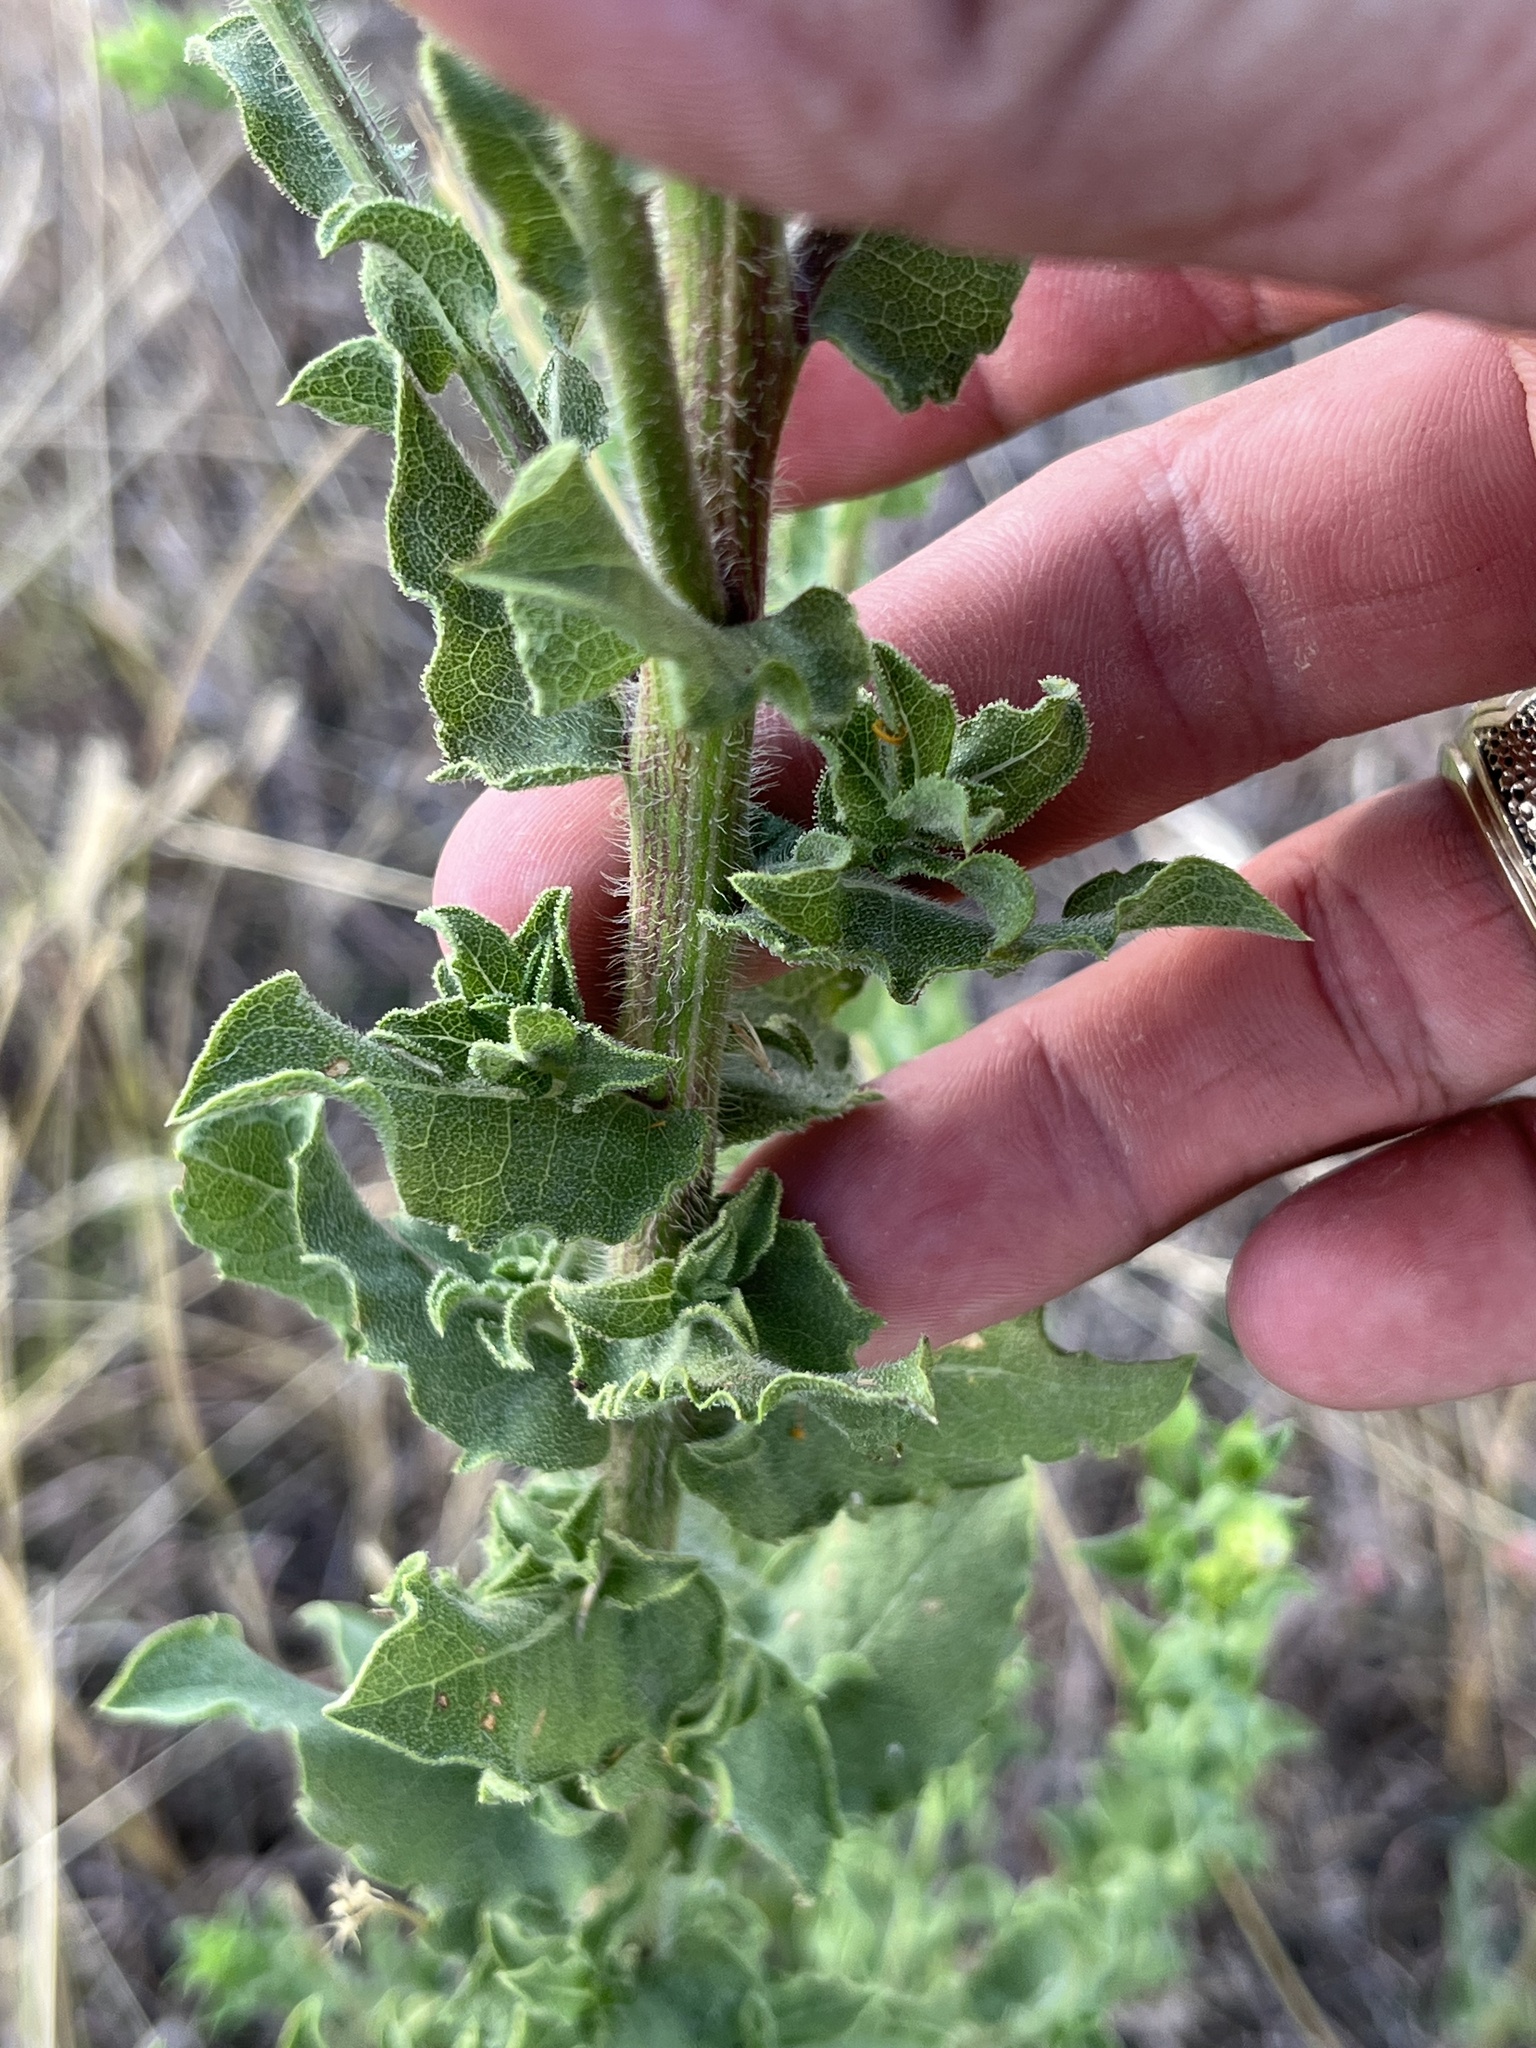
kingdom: Plantae
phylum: Tracheophyta
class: Magnoliopsida
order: Asterales
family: Asteraceae
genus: Heterotheca
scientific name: Heterotheca subaxillaris
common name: Camphorweed
